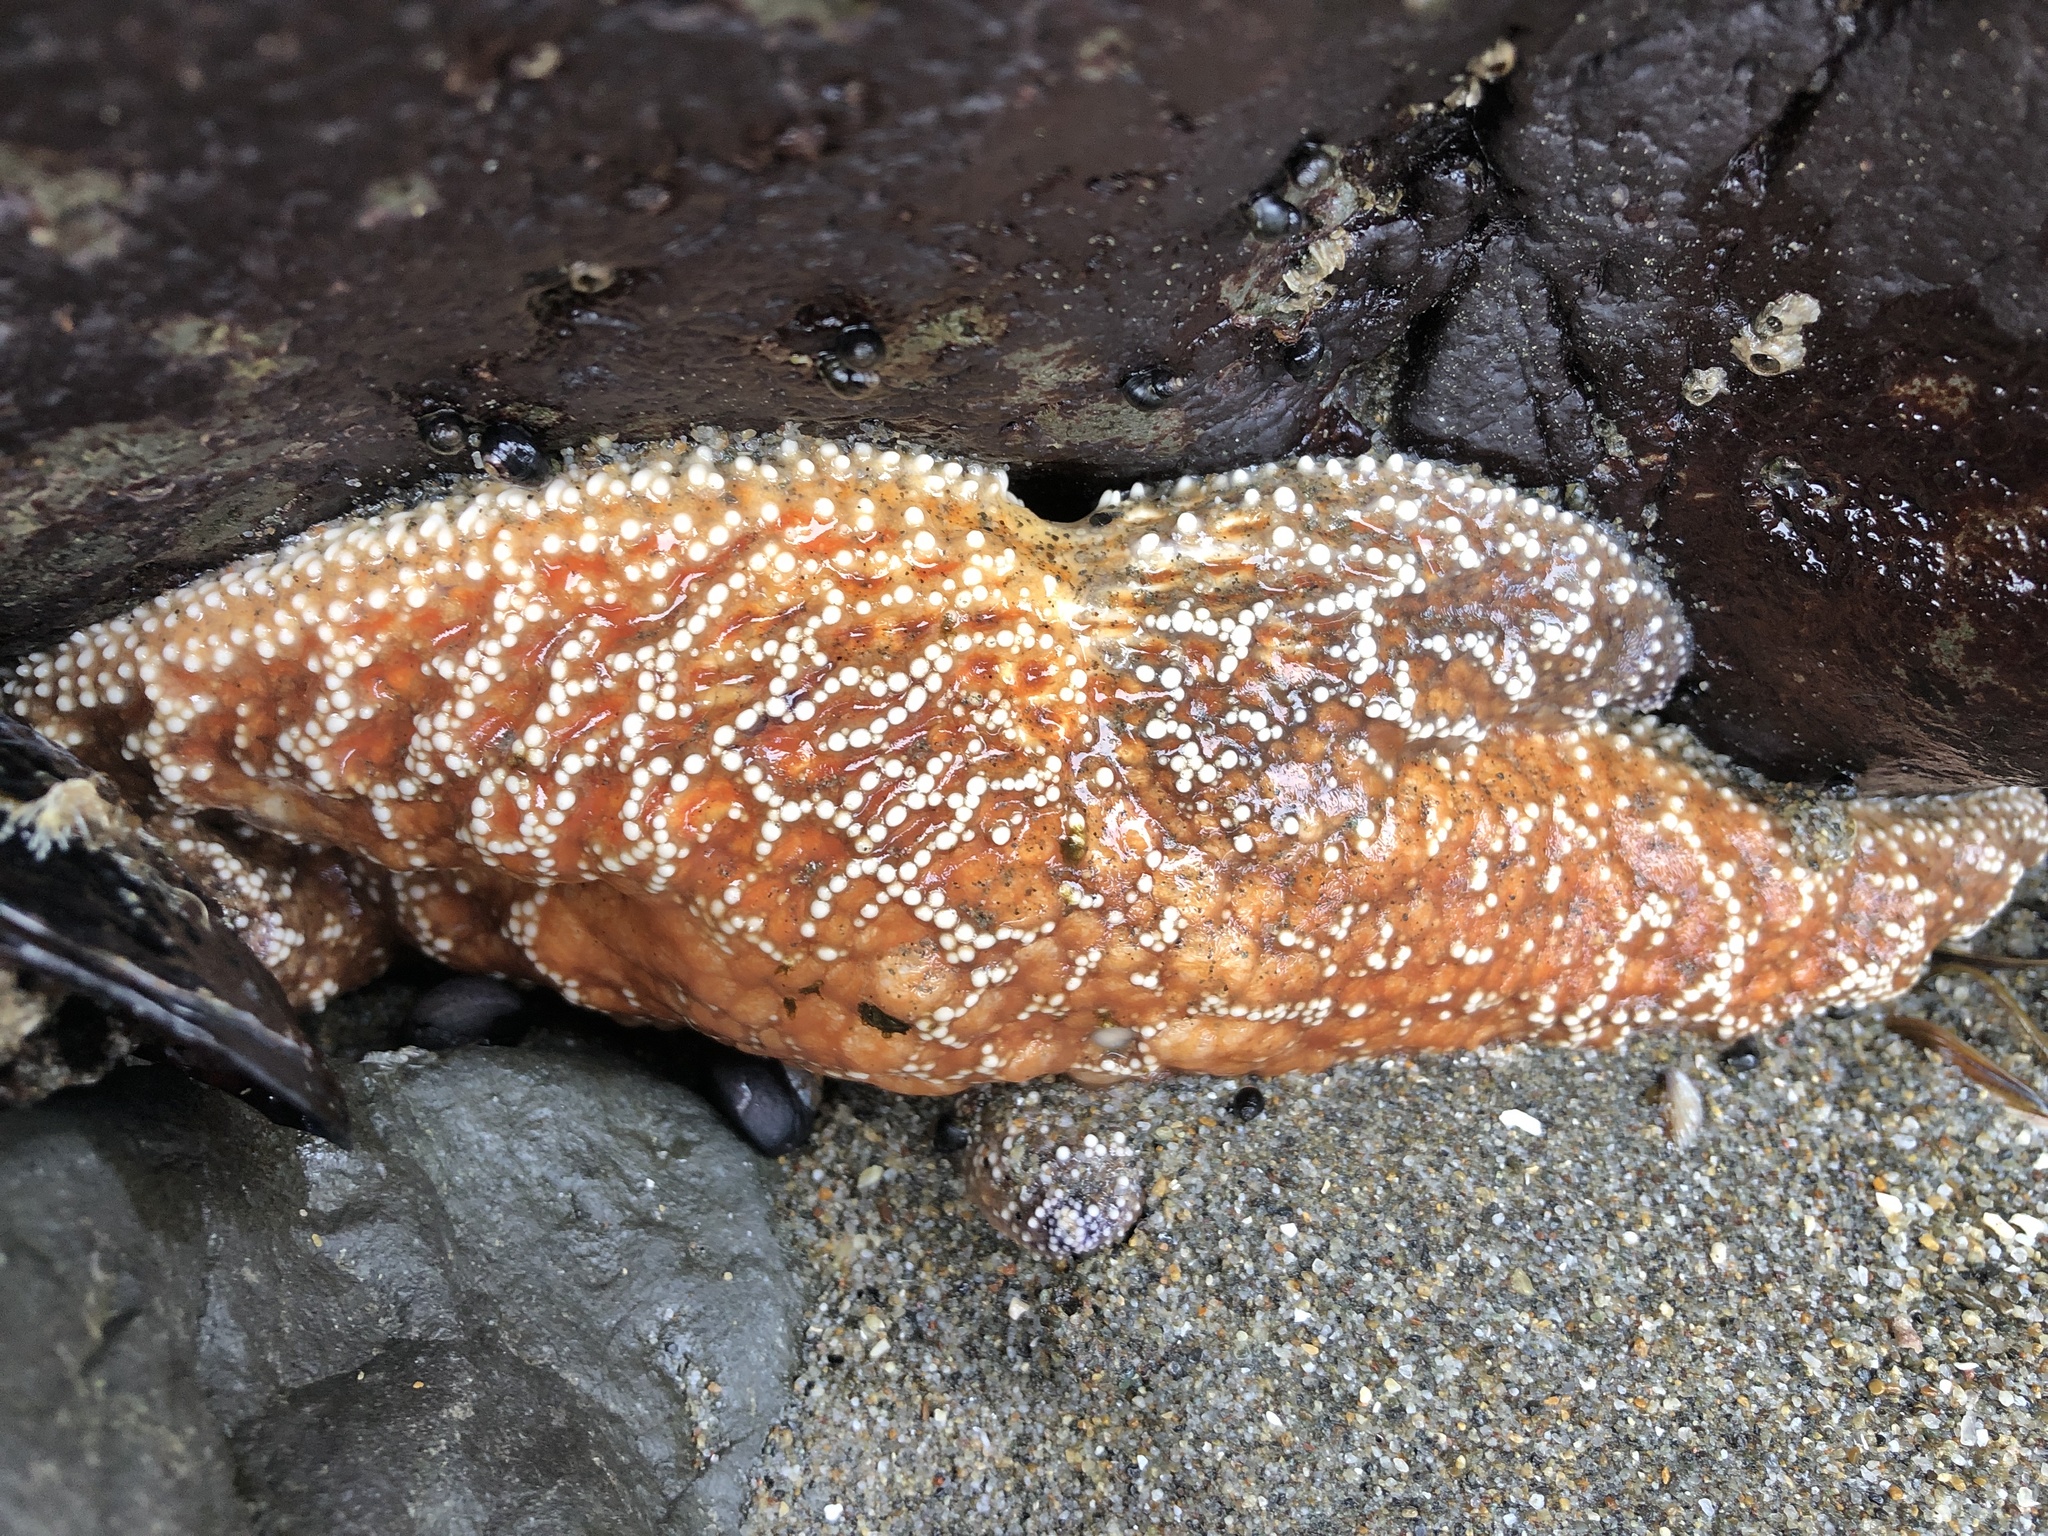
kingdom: Animalia
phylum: Echinodermata
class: Asteroidea
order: Forcipulatida
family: Asteriidae
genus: Pisaster
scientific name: Pisaster ochraceus
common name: Ochre stars
